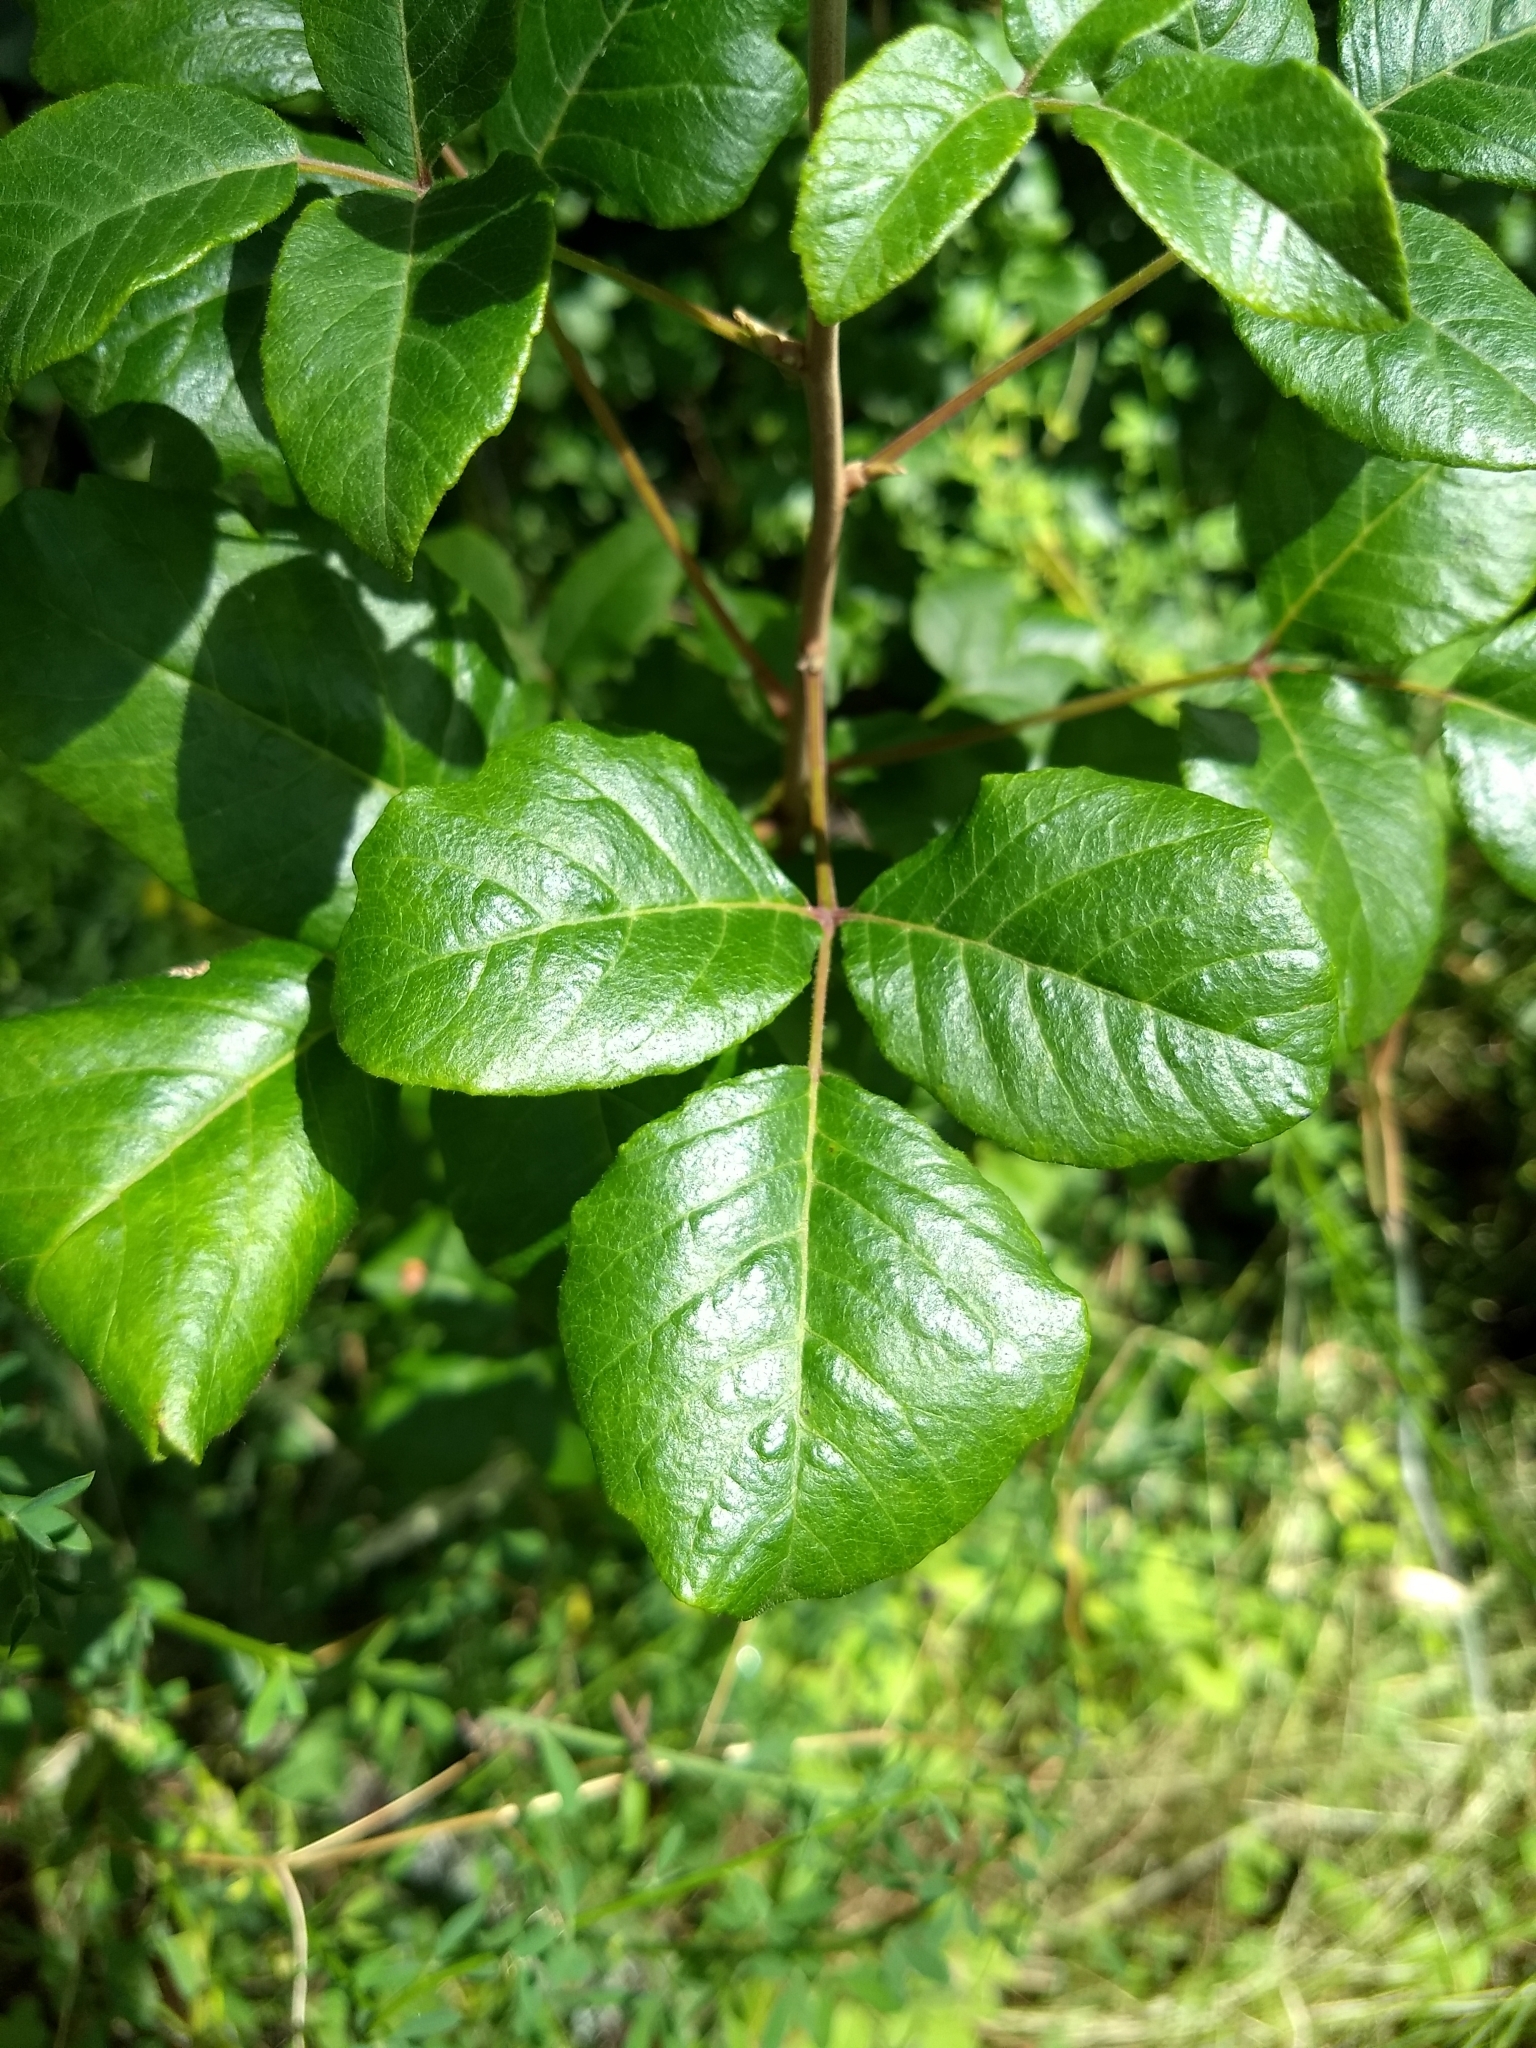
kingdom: Plantae
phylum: Tracheophyta
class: Magnoliopsida
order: Sapindales
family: Anacardiaceae
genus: Toxicodendron
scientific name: Toxicodendron diversilobum
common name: Pacific poison-oak
